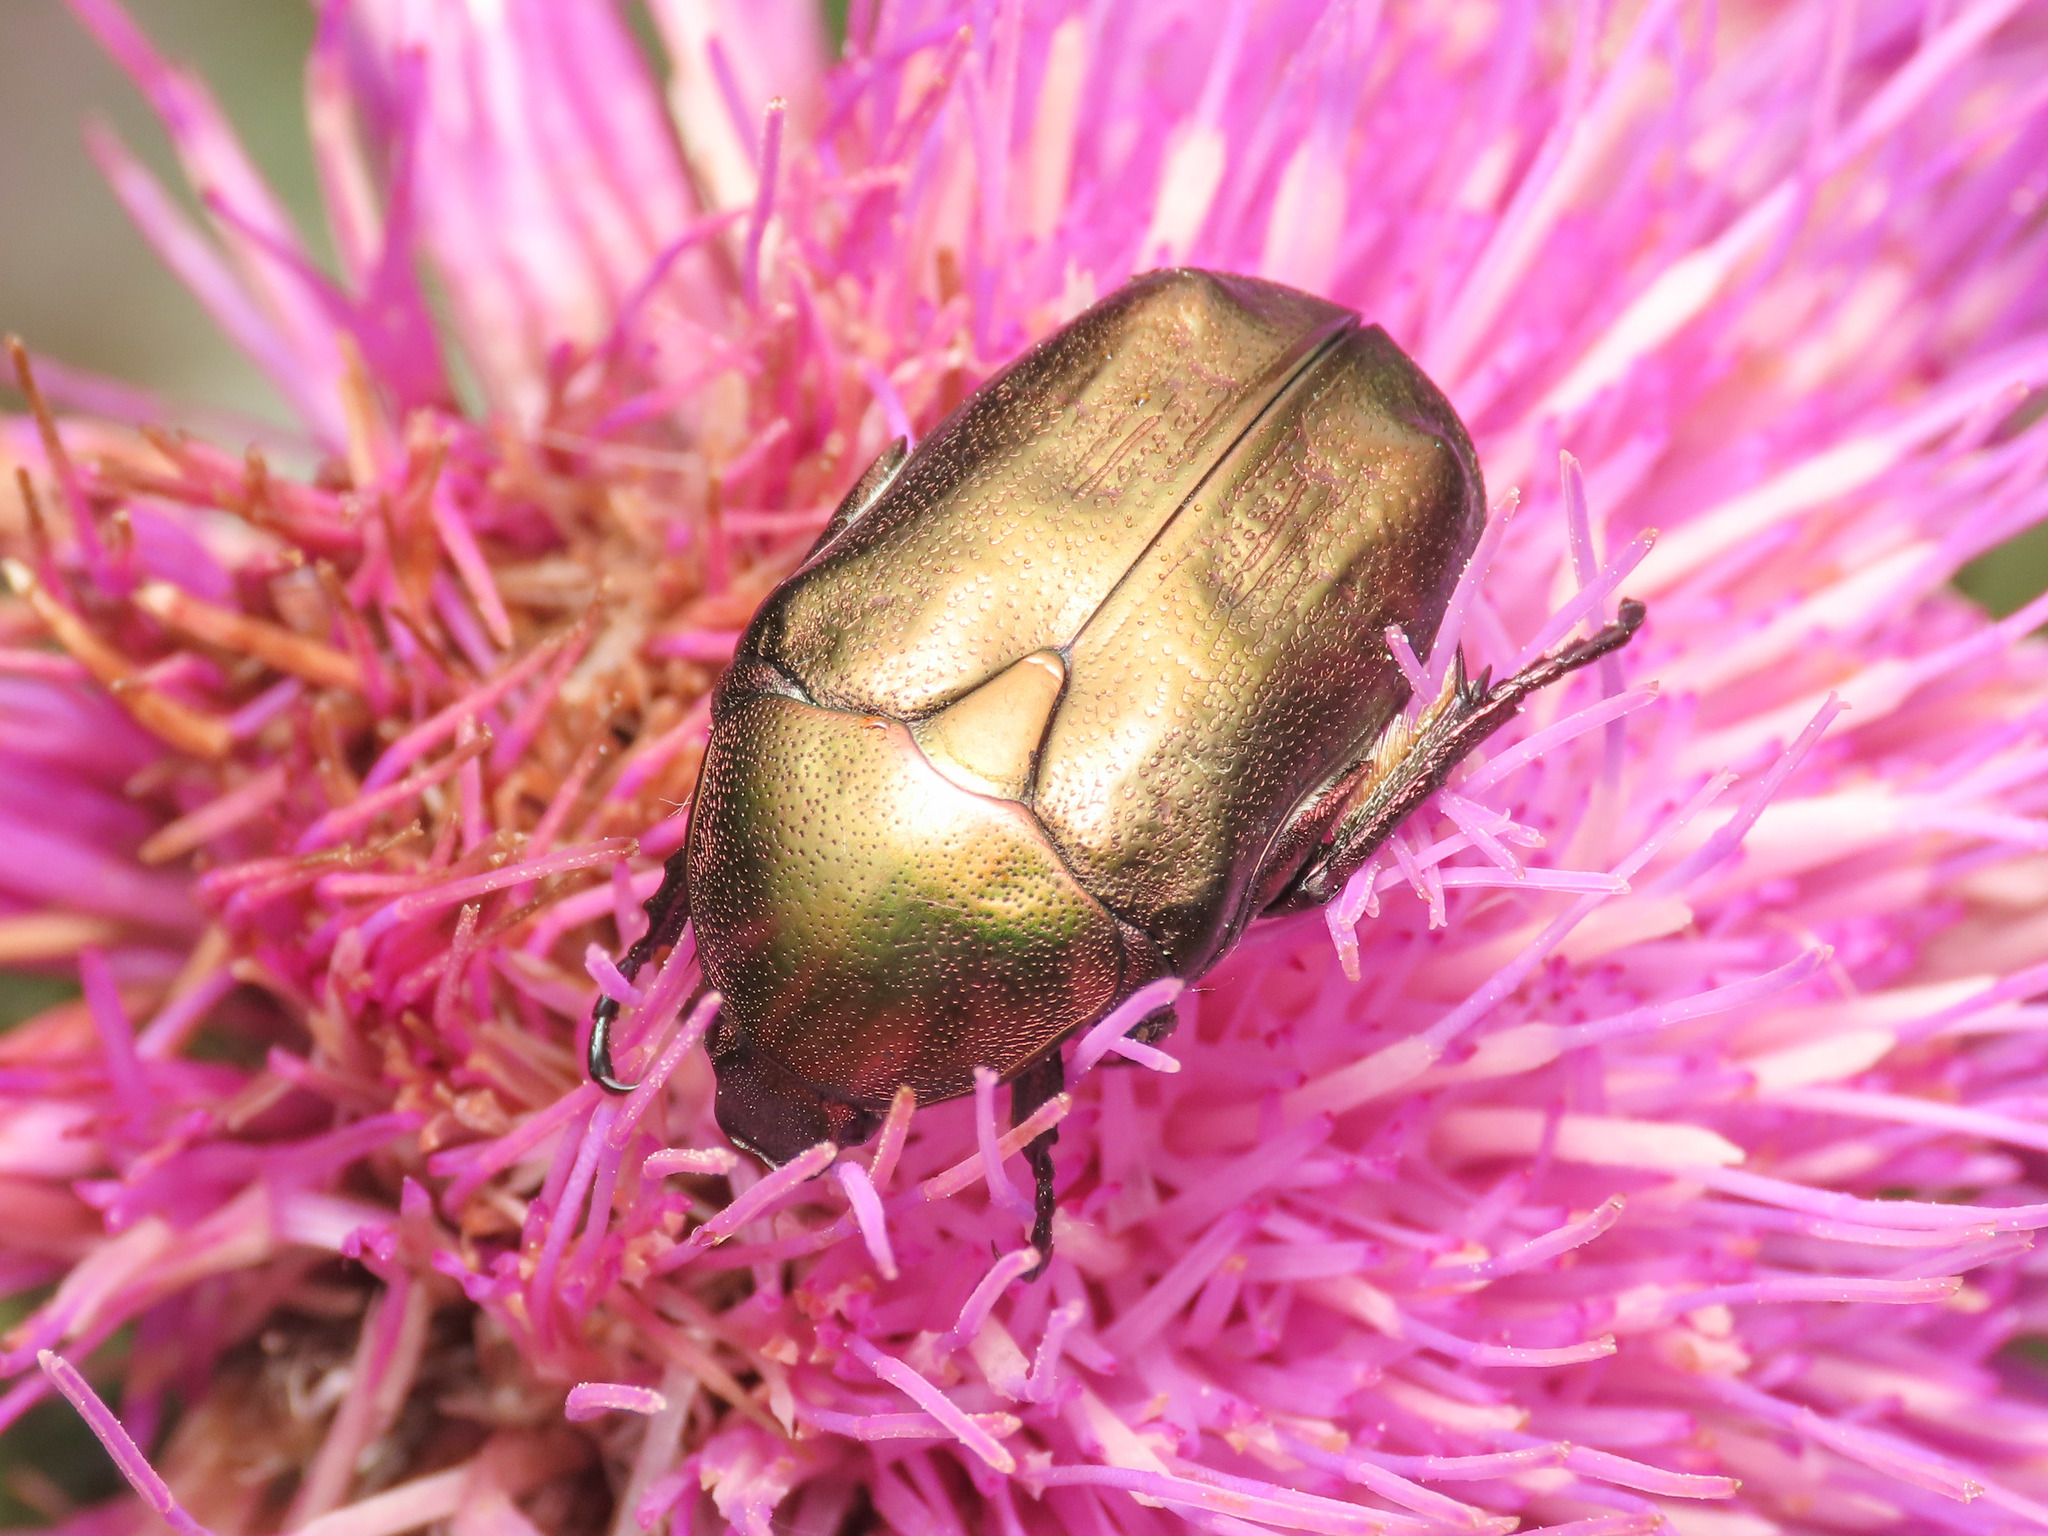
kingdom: Animalia
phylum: Arthropoda
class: Insecta
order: Coleoptera
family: Scarabaeidae
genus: Protaetia
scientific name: Protaetia cuprea
